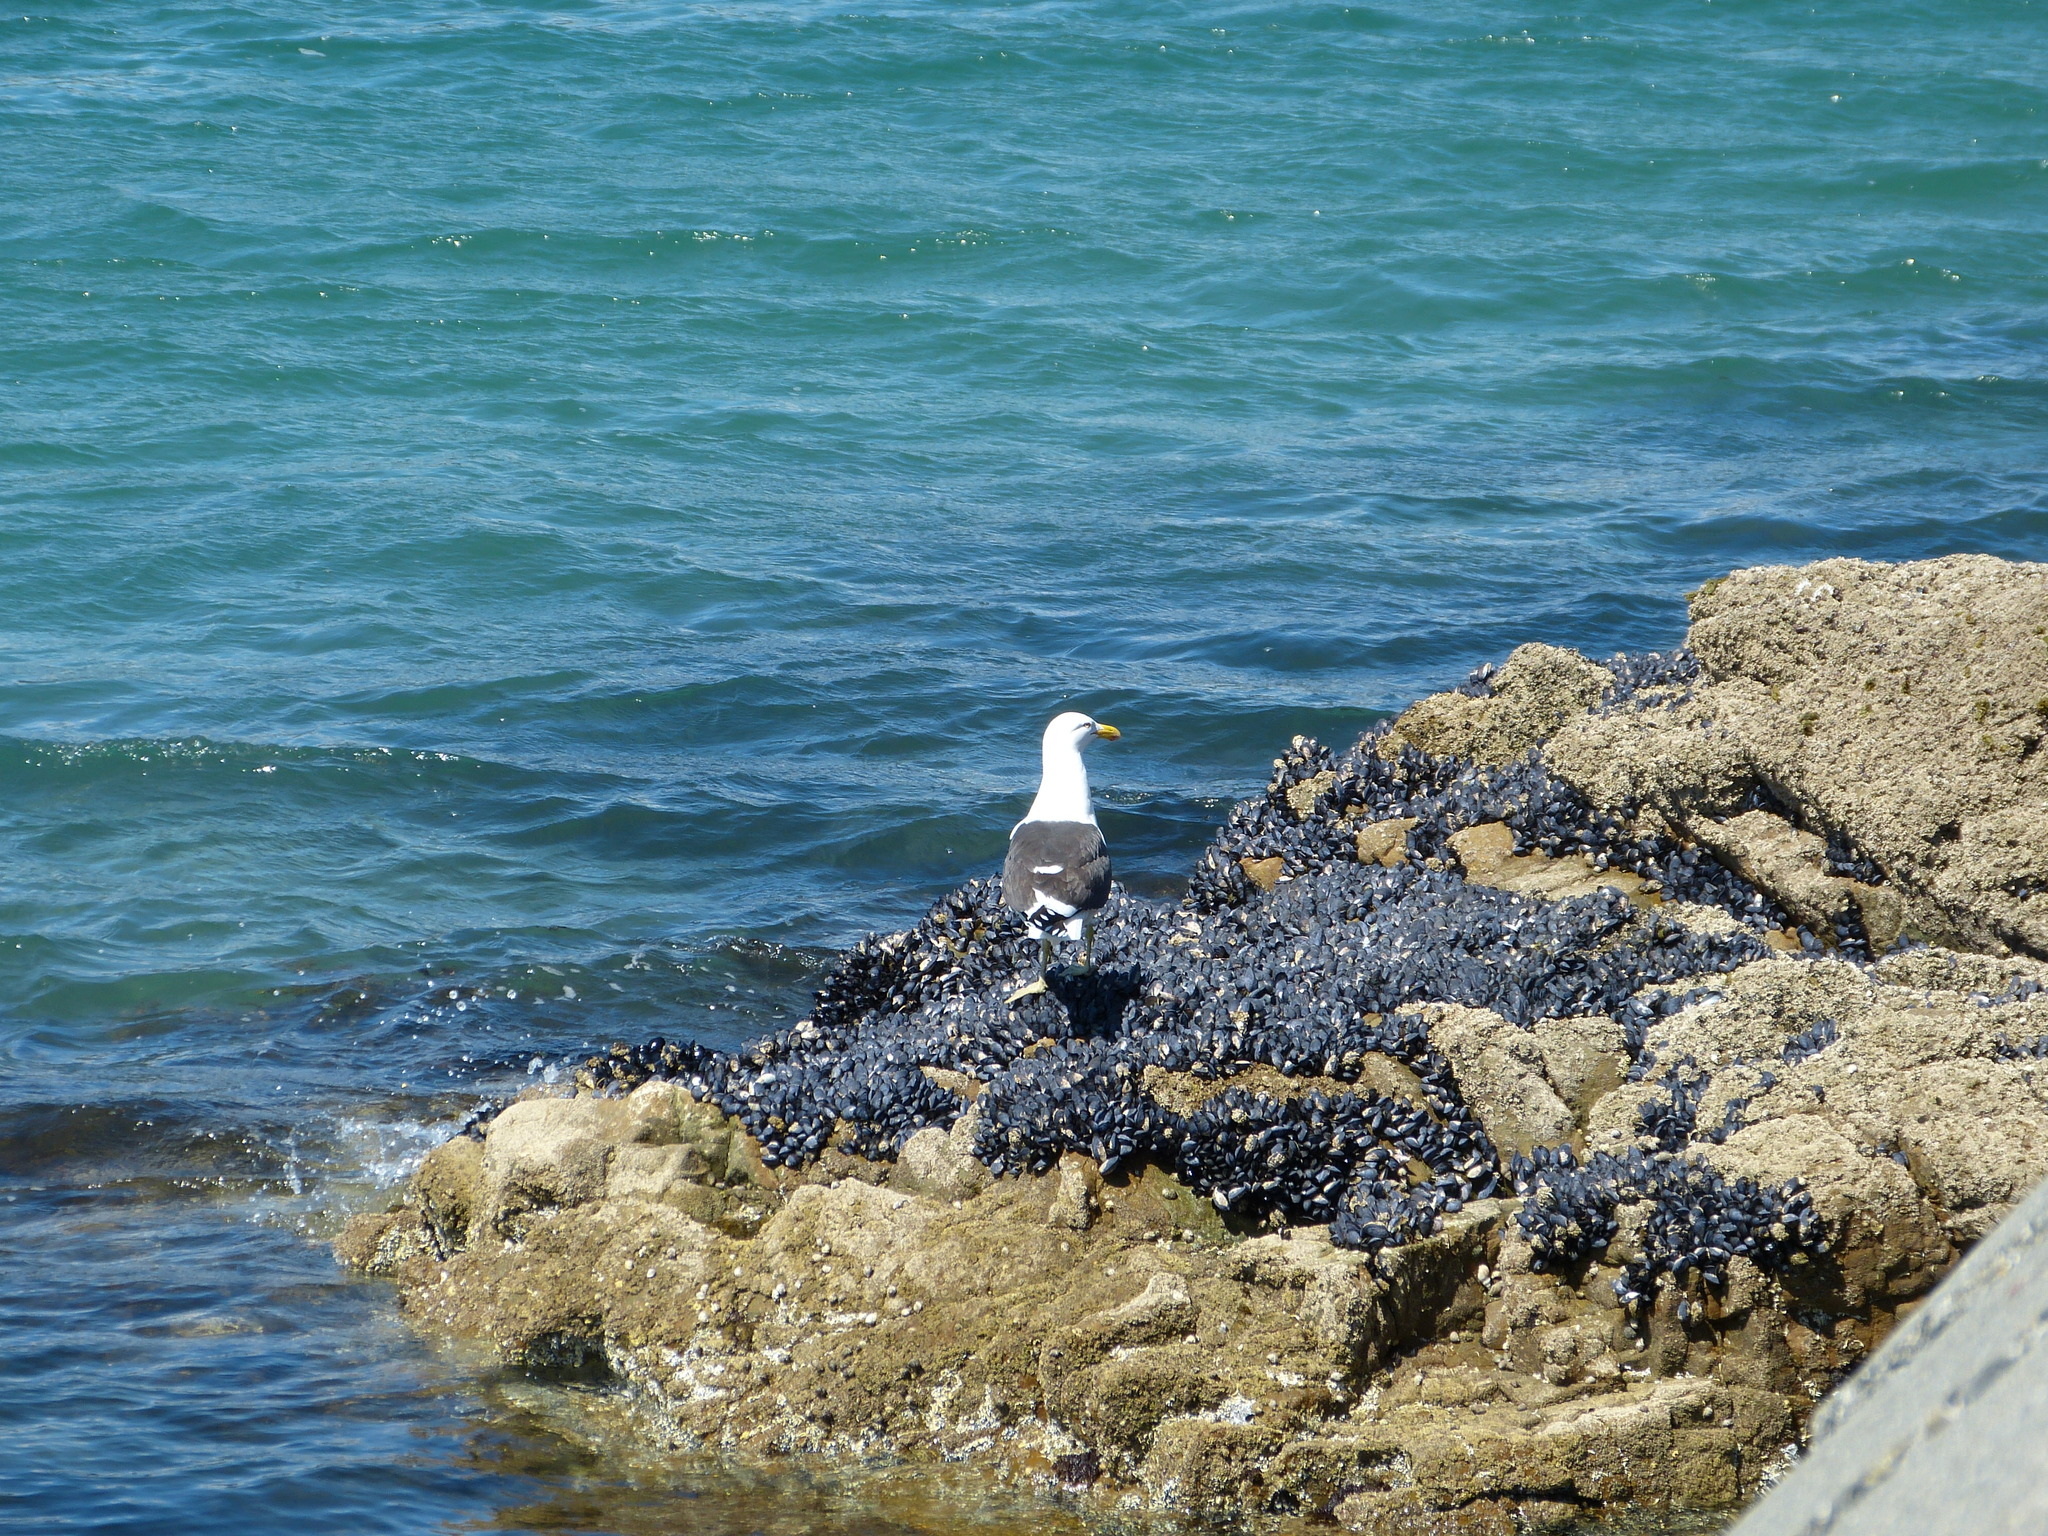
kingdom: Animalia
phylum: Chordata
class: Aves
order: Charadriiformes
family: Laridae
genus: Larus
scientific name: Larus dominicanus
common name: Kelp gull
